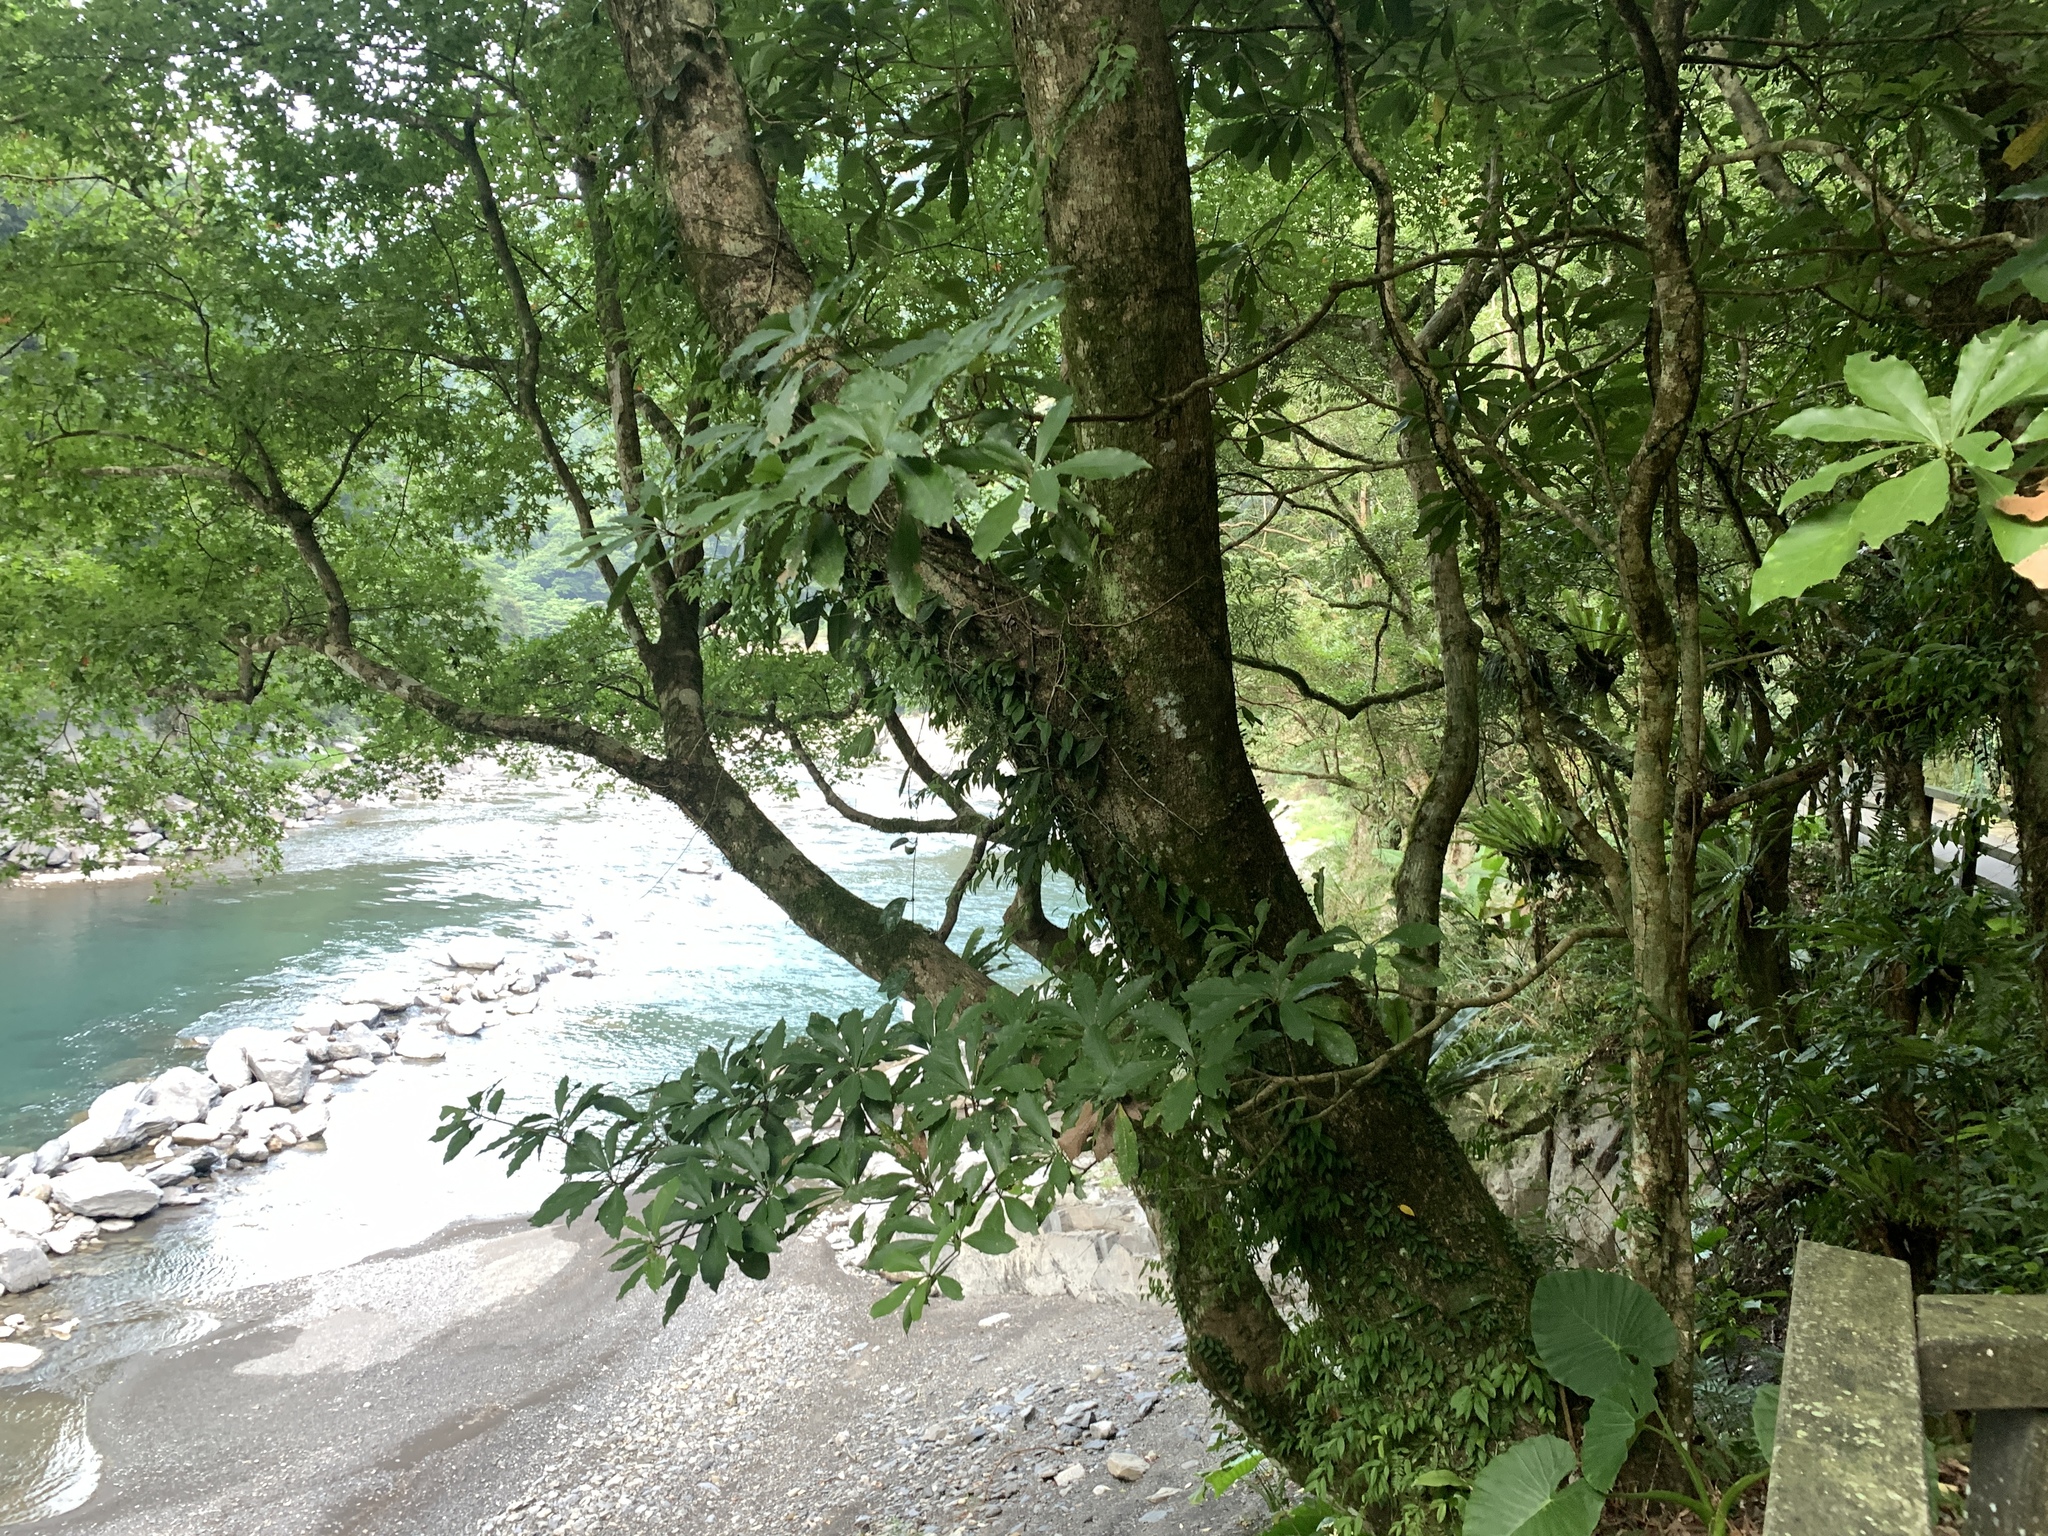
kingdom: Plantae
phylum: Tracheophyta
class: Magnoliopsida
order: Laurales
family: Lauraceae
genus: Machilus
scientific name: Machilus japonica
